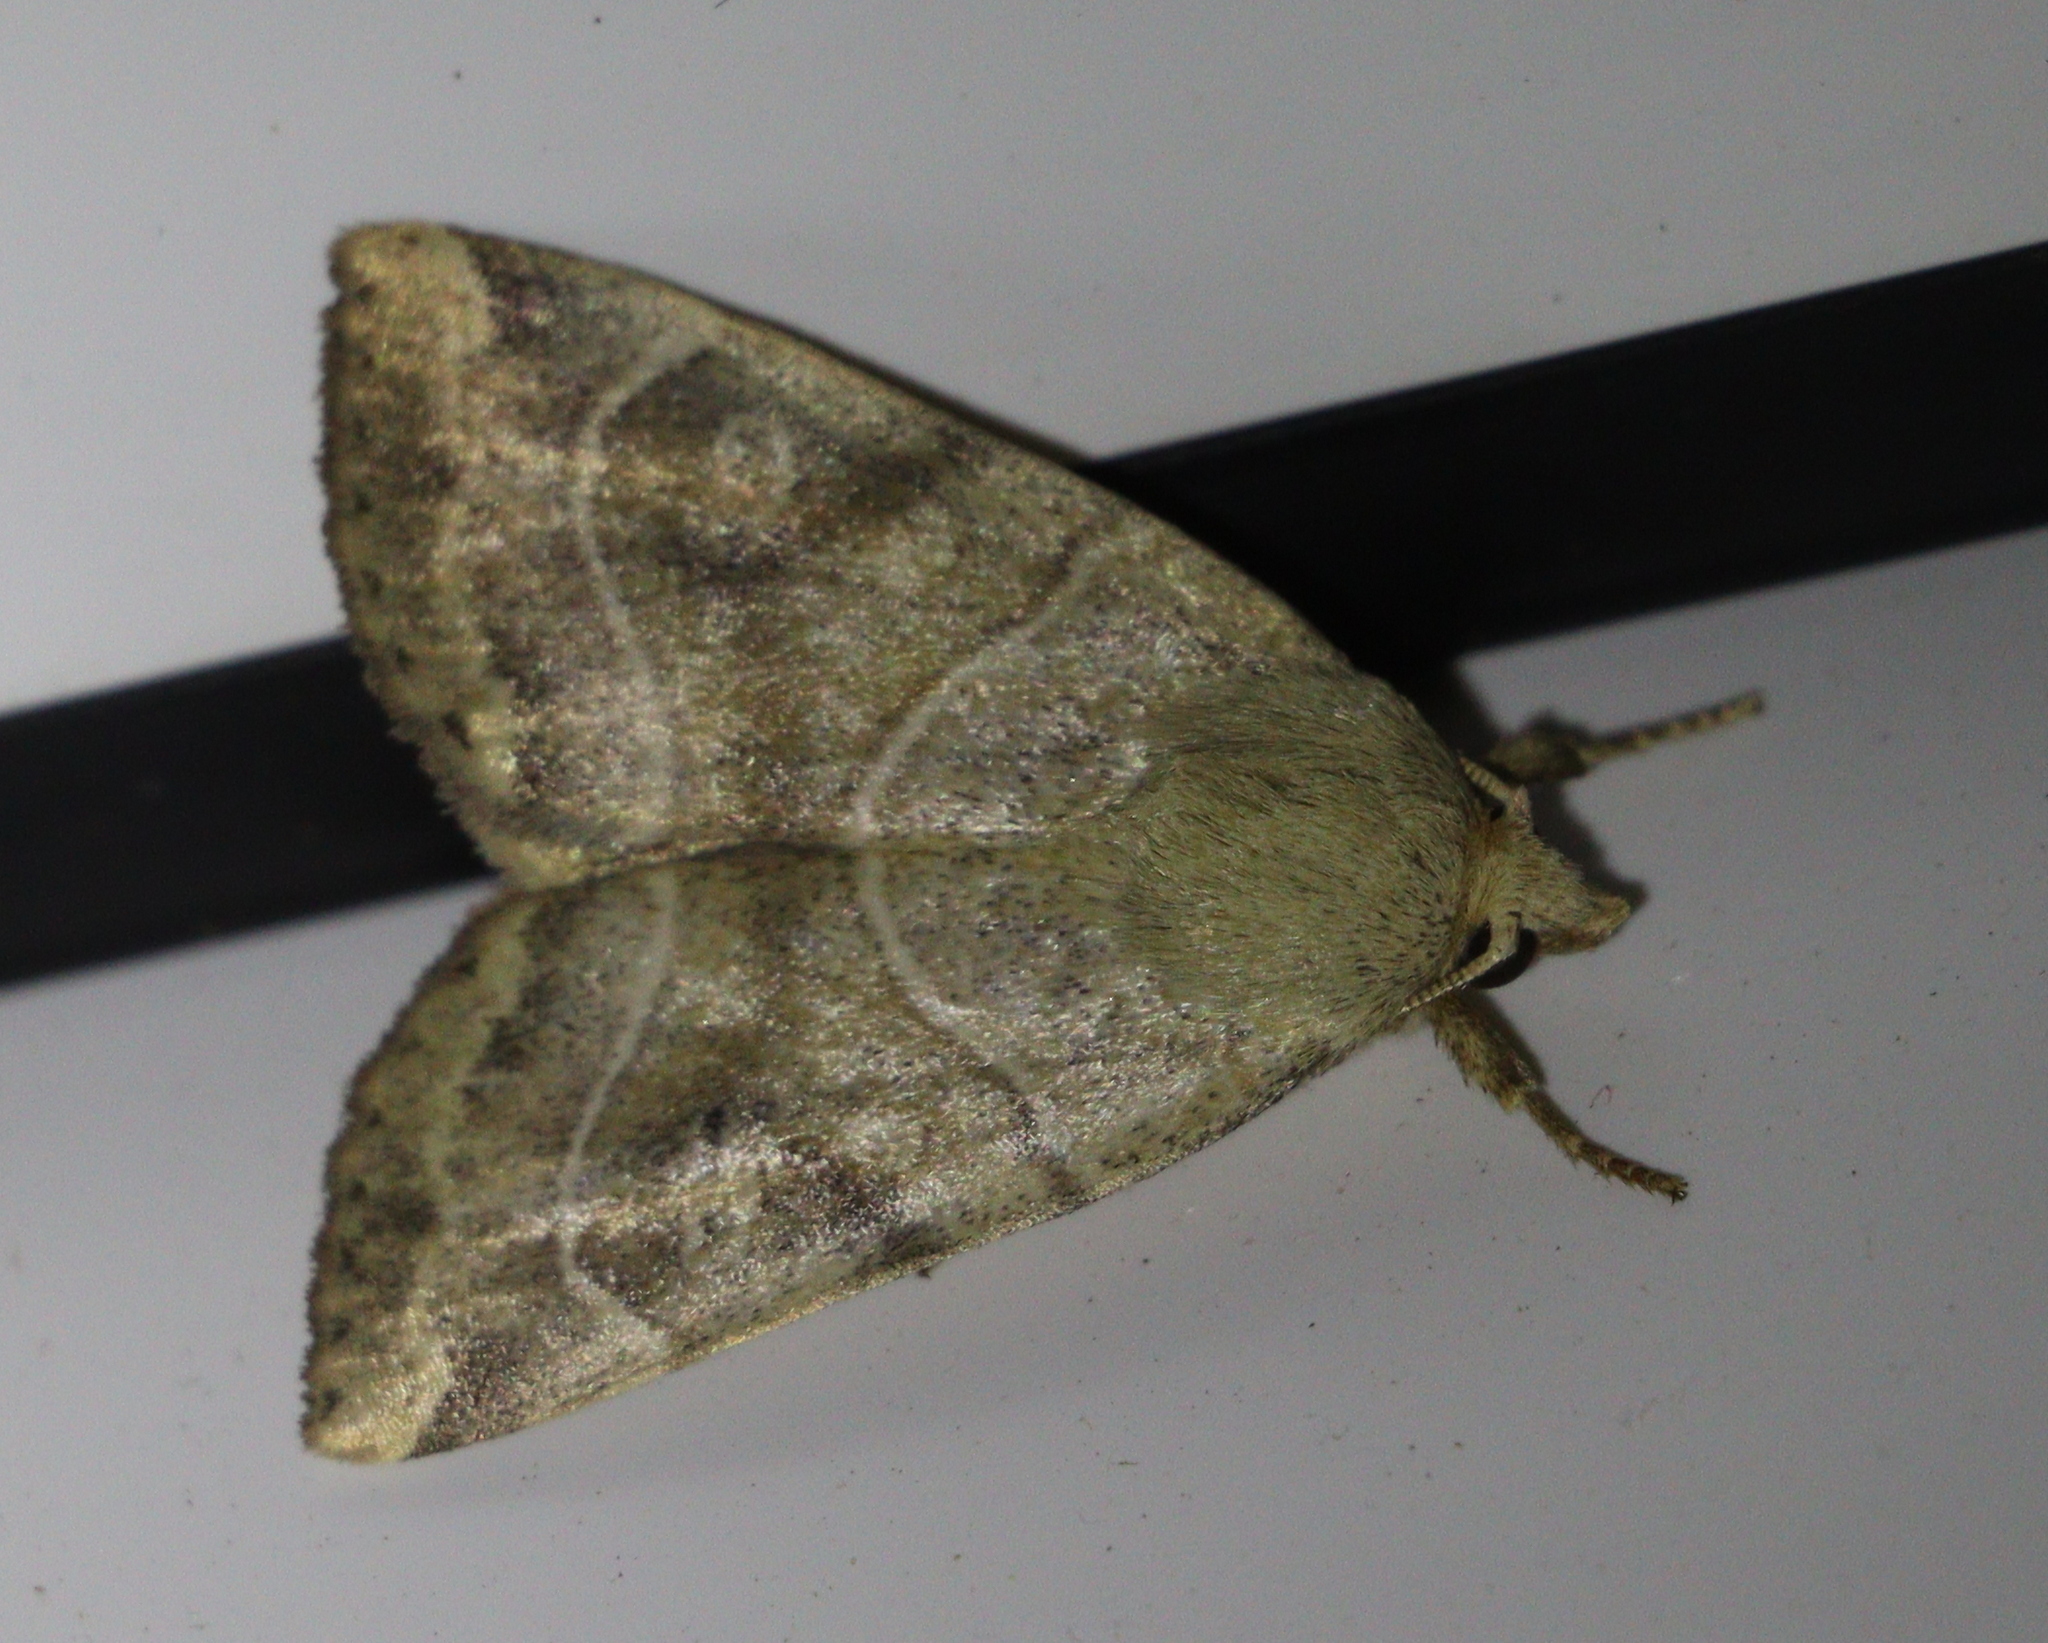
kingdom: Animalia
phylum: Arthropoda
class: Insecta
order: Lepidoptera
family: Noctuidae
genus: Cosmia
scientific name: Cosmia trapezina
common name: Dun-bar
